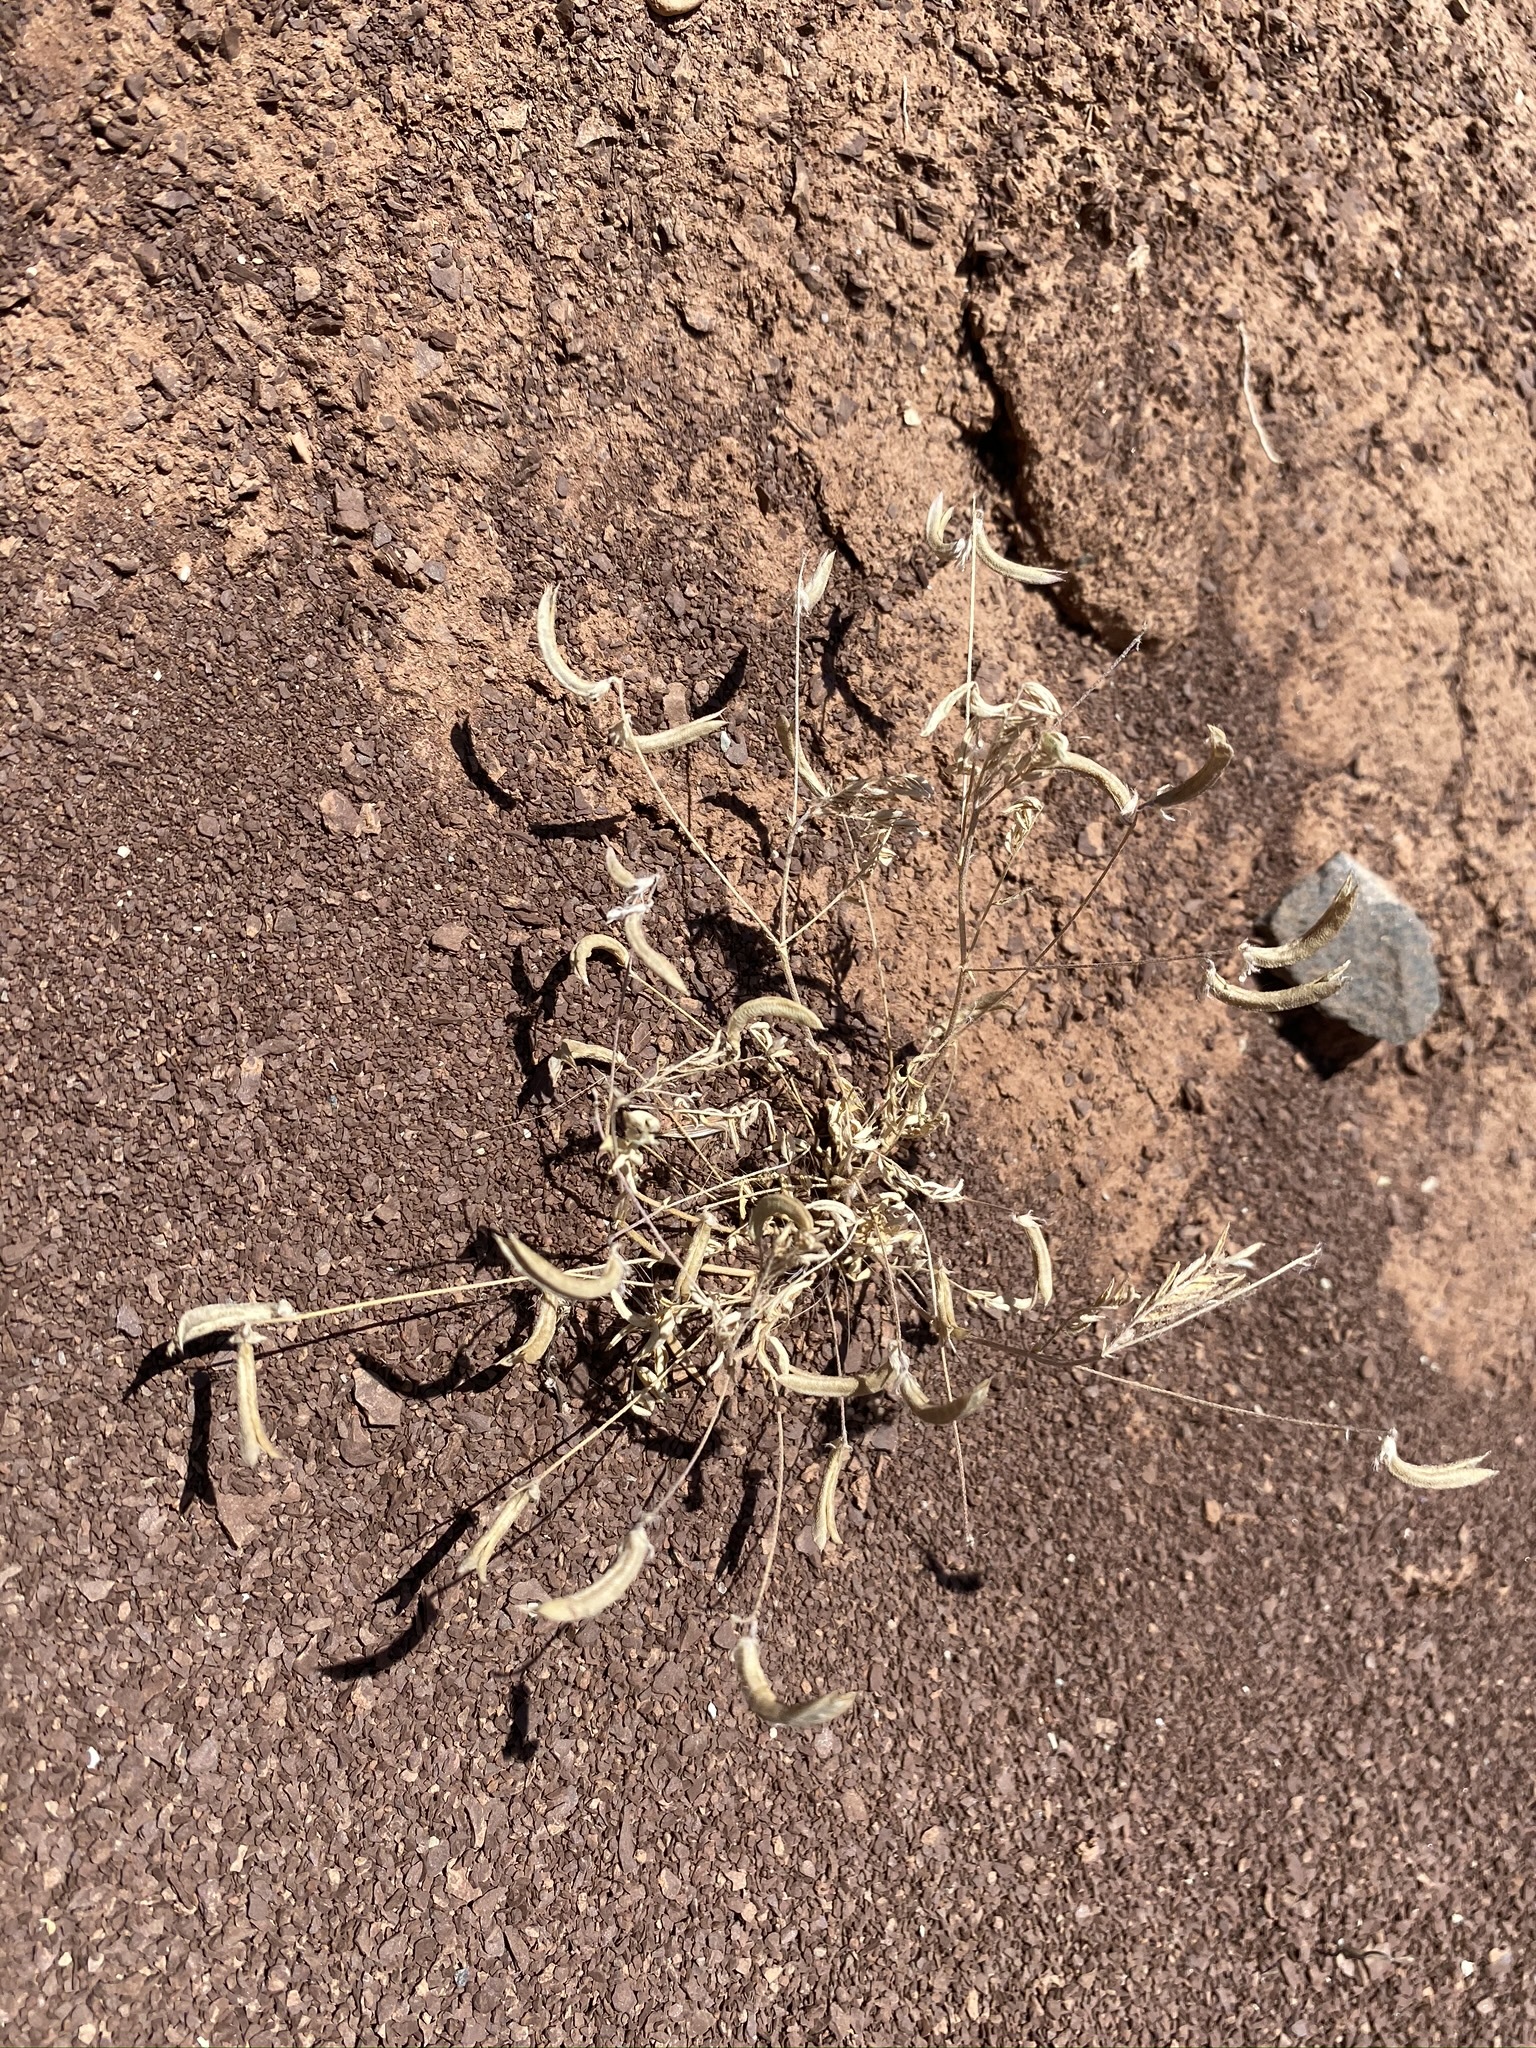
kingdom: Plantae
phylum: Tracheophyta
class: Magnoliopsida
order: Fabales
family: Fabaceae
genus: Astragalus
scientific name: Astragalus nuttallianus
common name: Smallflowered milkvetch
